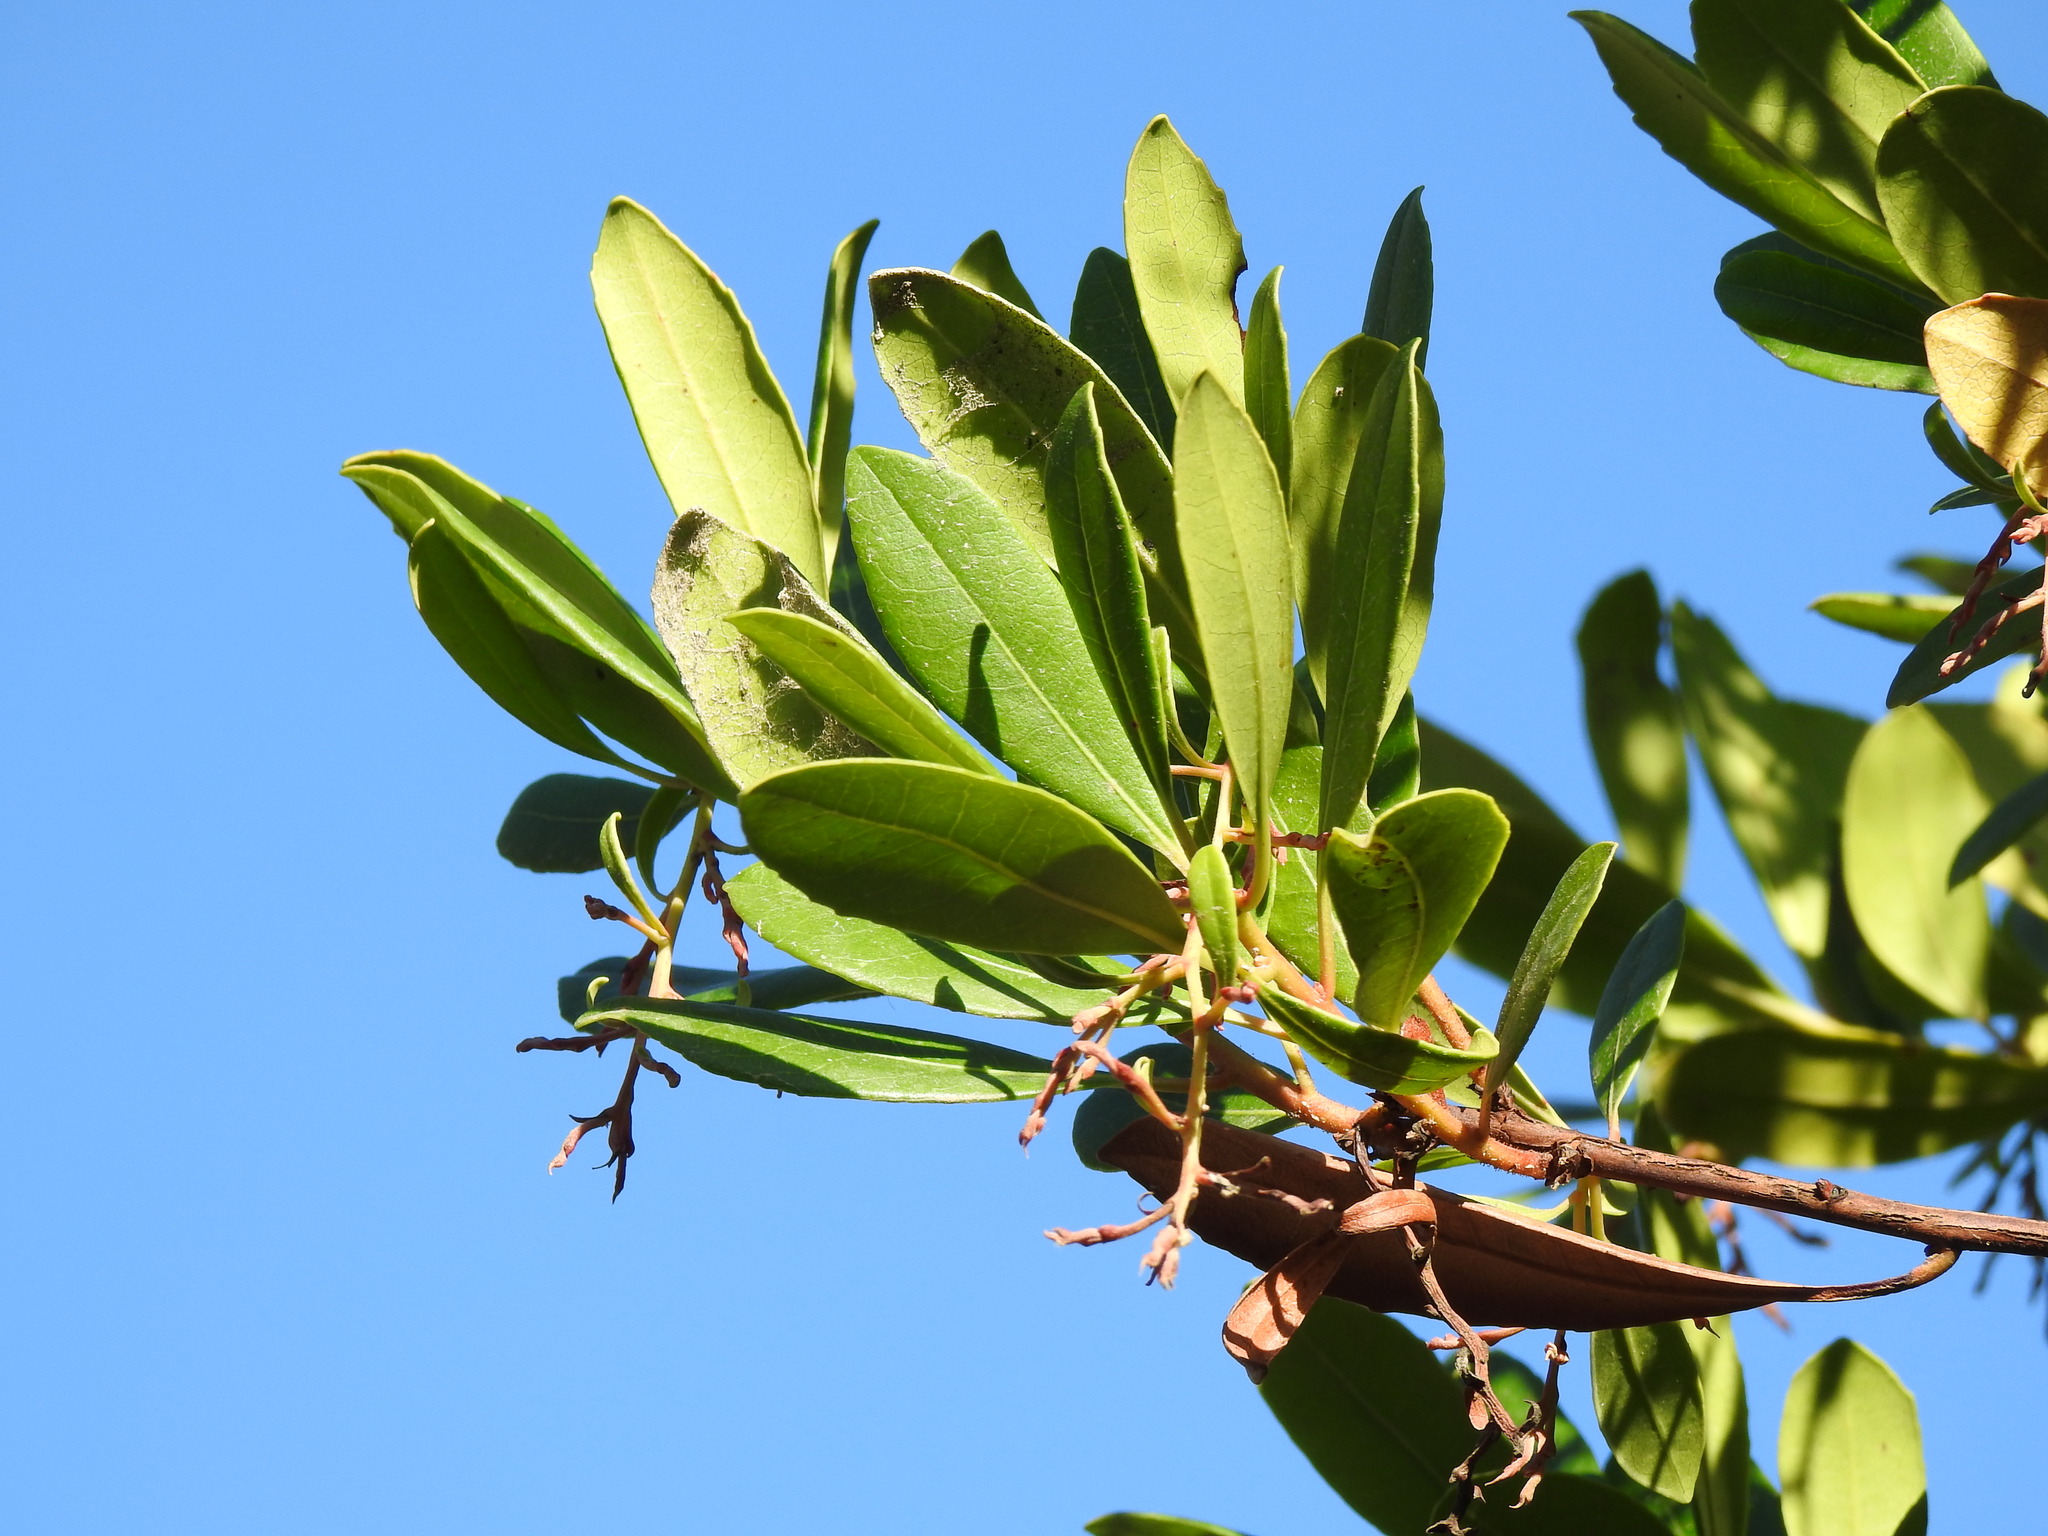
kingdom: Plantae
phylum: Tracheophyta
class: Magnoliopsida
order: Ericales
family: Ericaceae
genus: Arbutus
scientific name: Arbutus unedo
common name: Strawberry-tree
